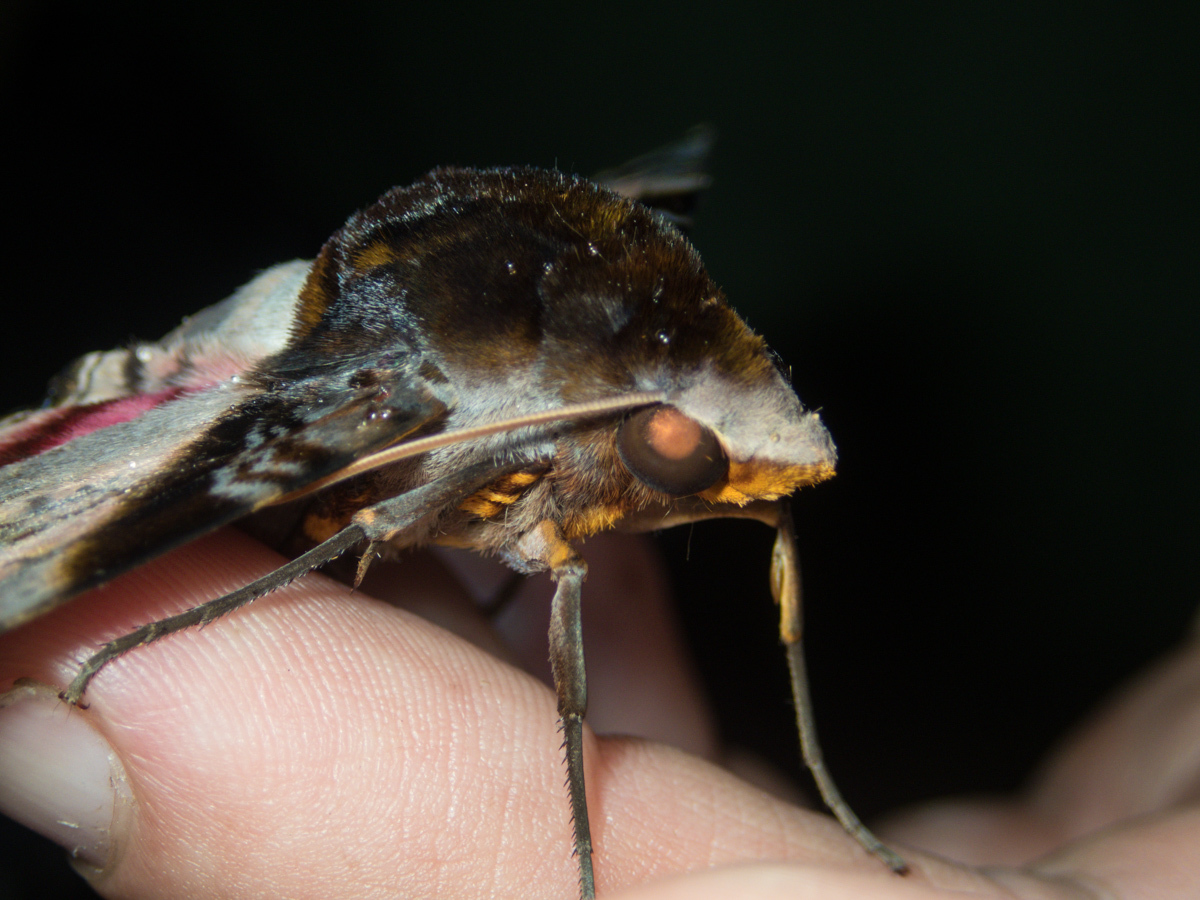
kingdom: Animalia
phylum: Arthropoda
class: Insecta
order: Lepidoptera
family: Sphingidae
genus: Amplypterus
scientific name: Amplypterus panopus
